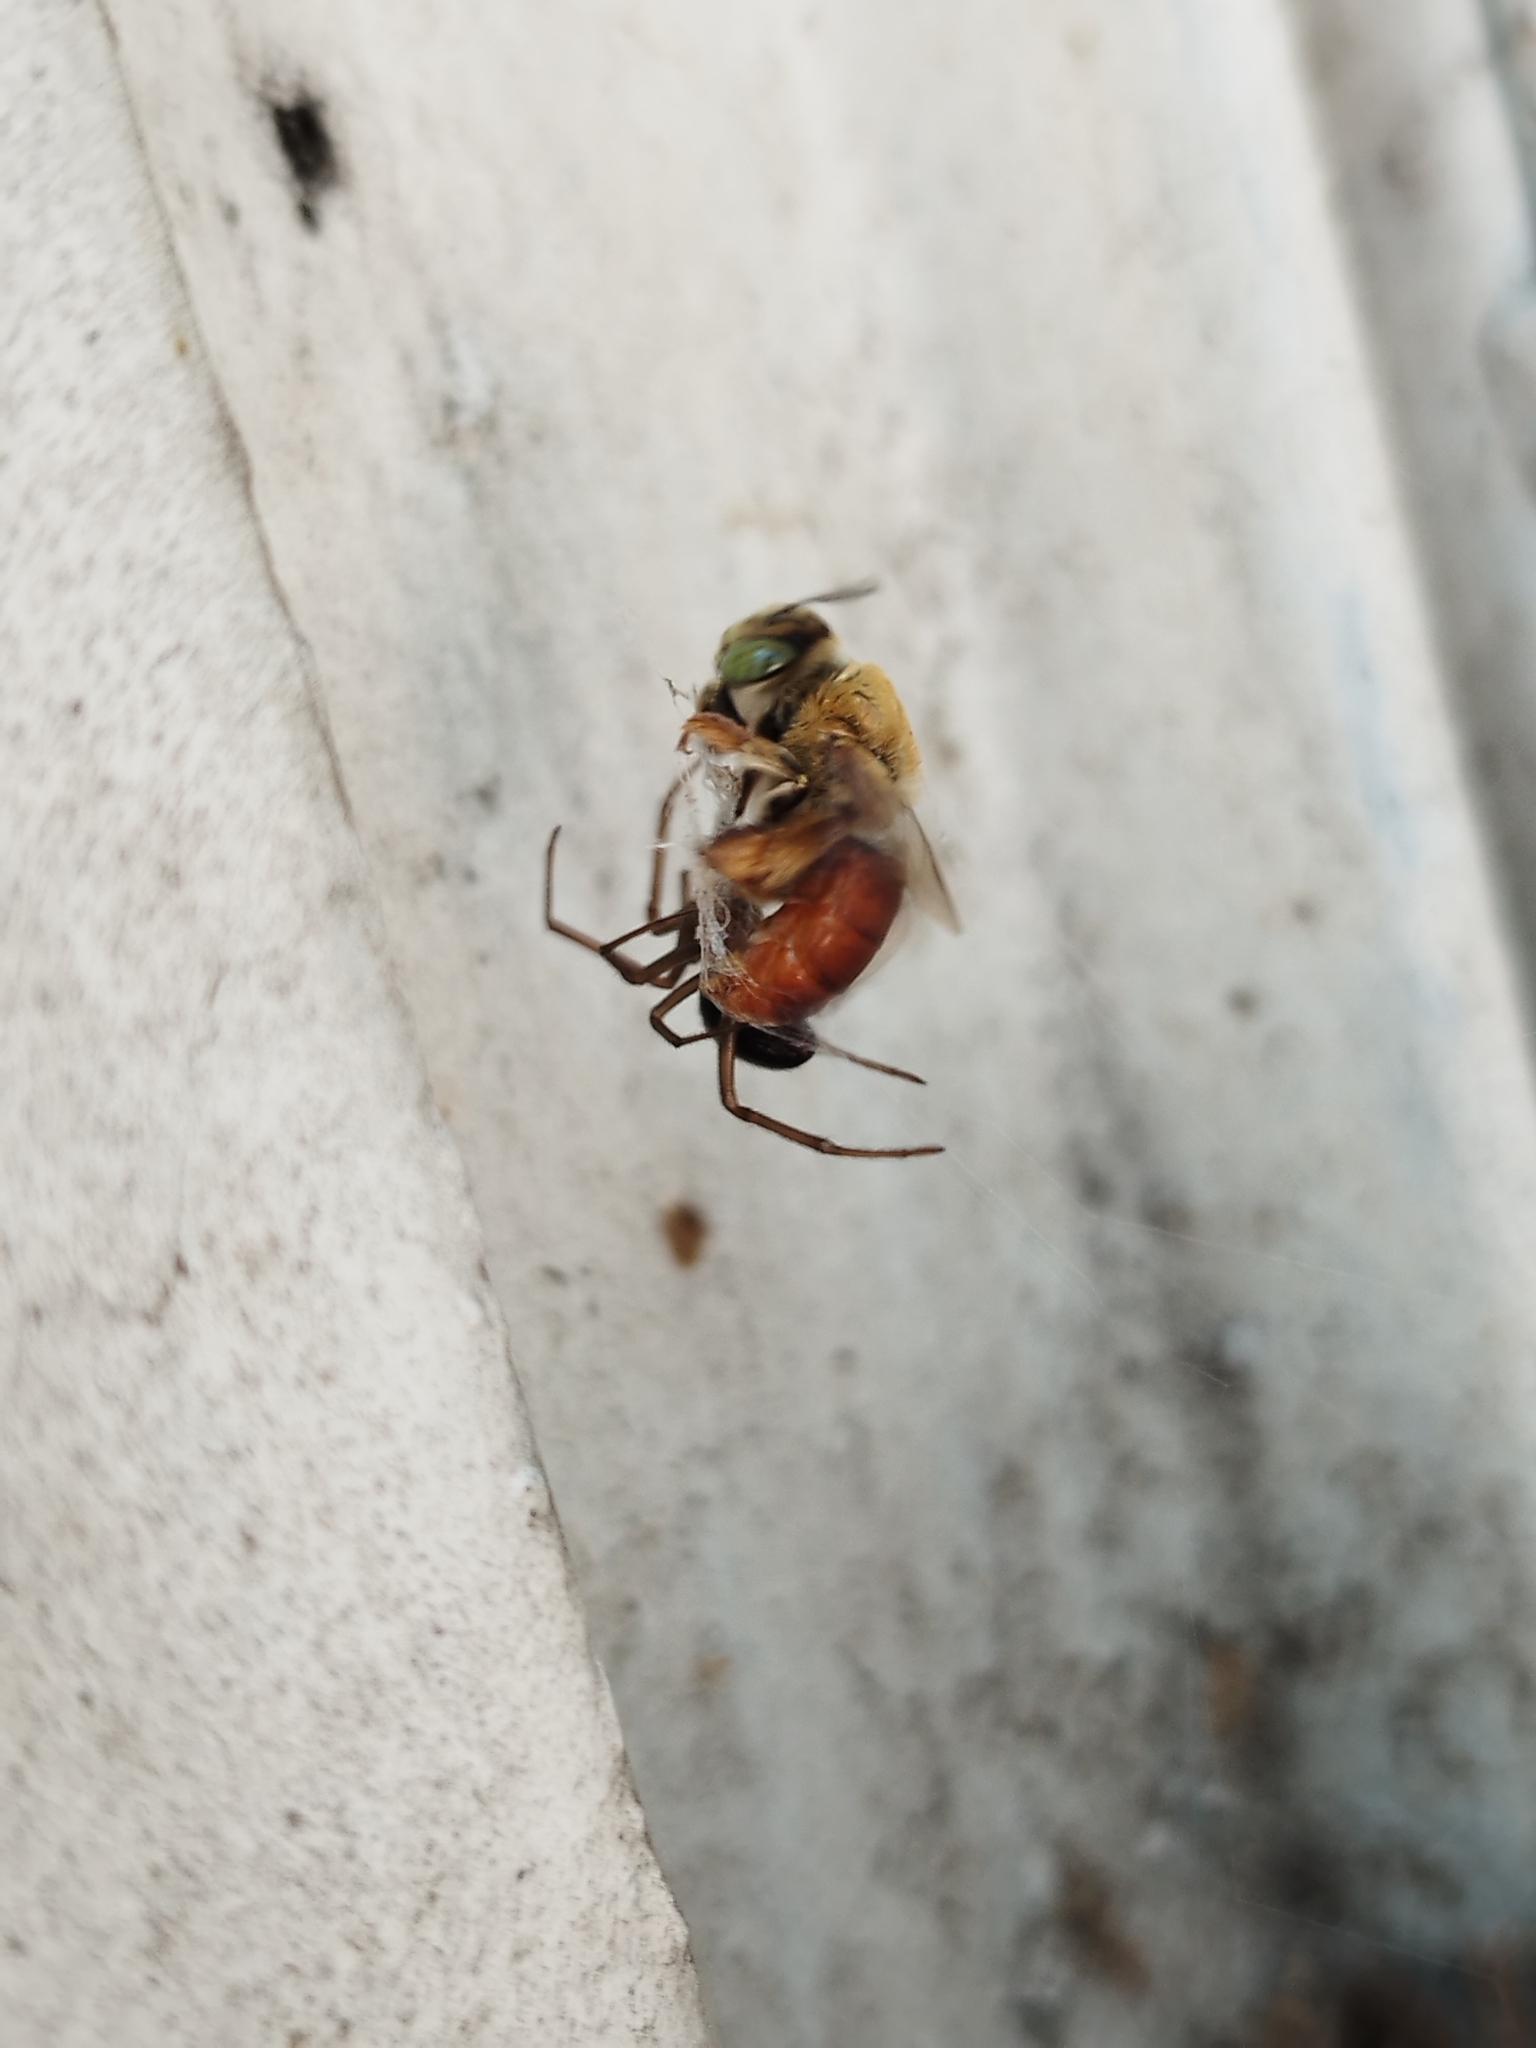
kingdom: Animalia
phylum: Arthropoda
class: Arachnida
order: Araneae
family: Theridiidae
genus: Steatoda
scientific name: Steatoda grossa
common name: False black widow
